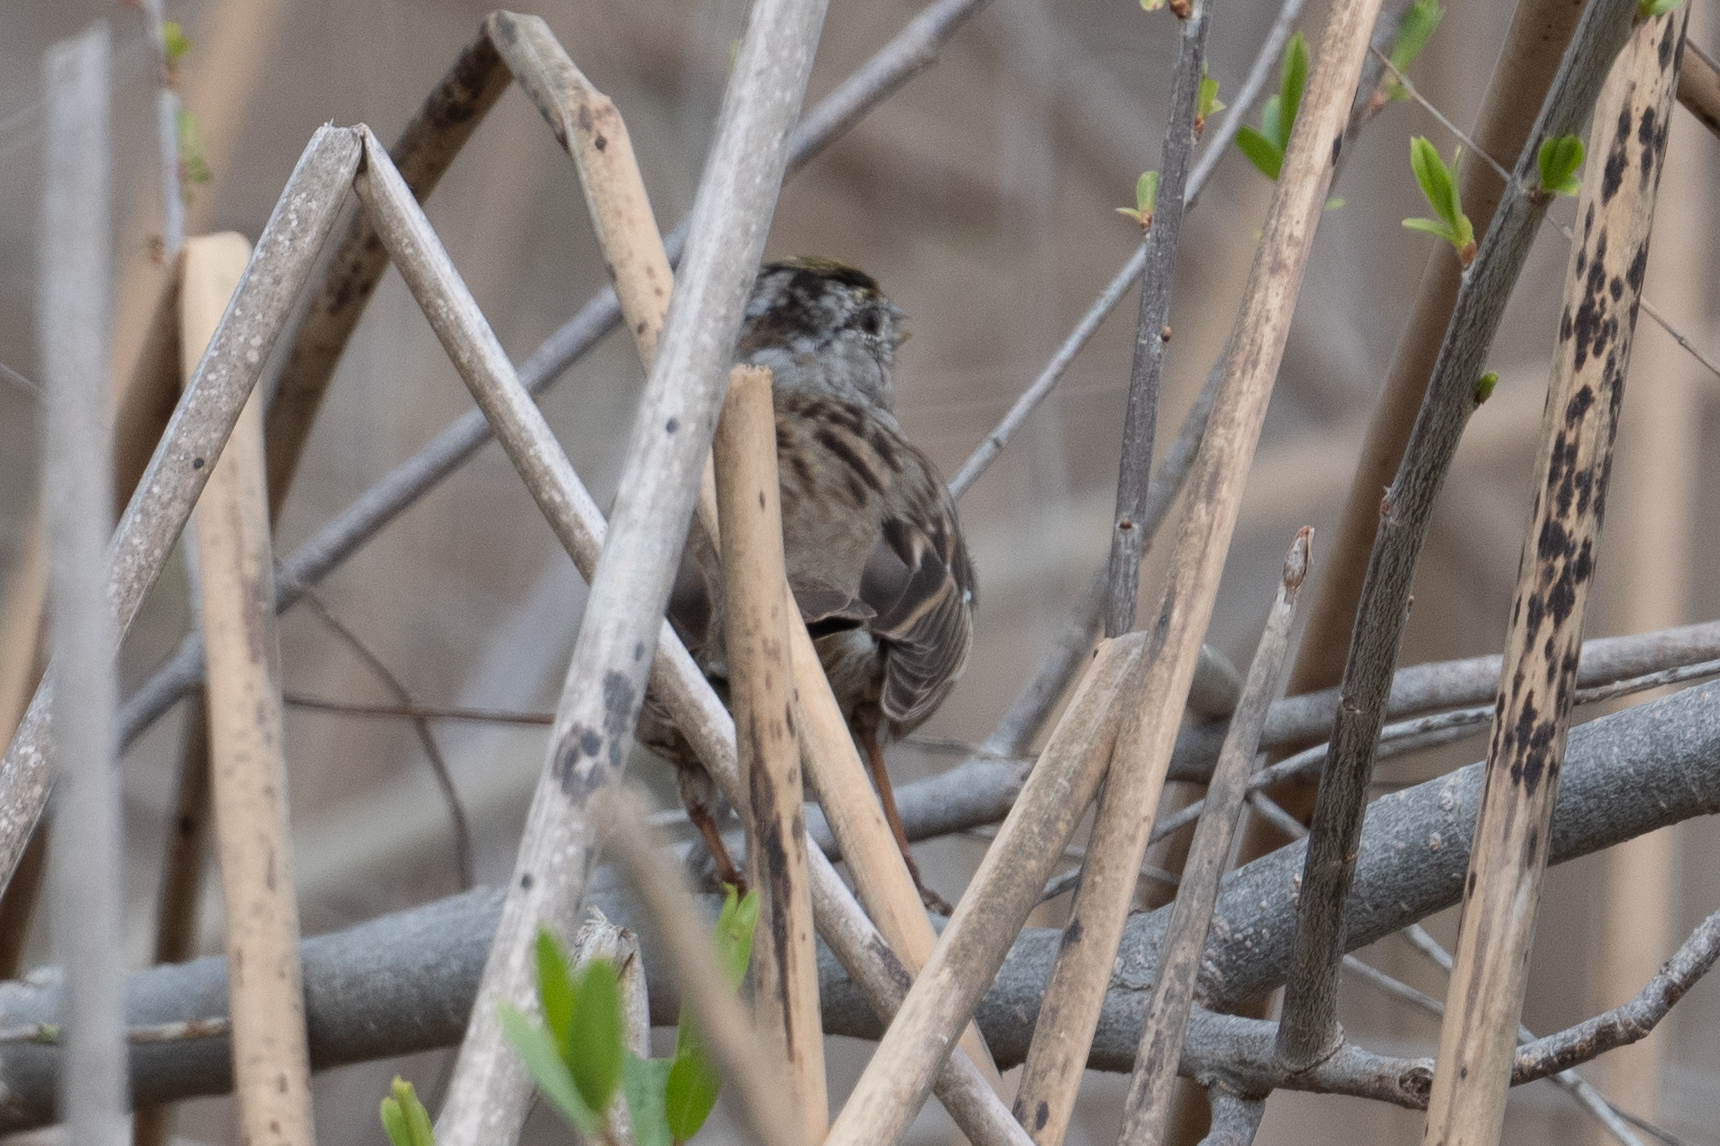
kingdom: Animalia
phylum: Chordata
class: Aves
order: Passeriformes
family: Passerellidae
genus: Zonotrichia
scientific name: Zonotrichia atricapilla
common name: Golden-crowned sparrow
